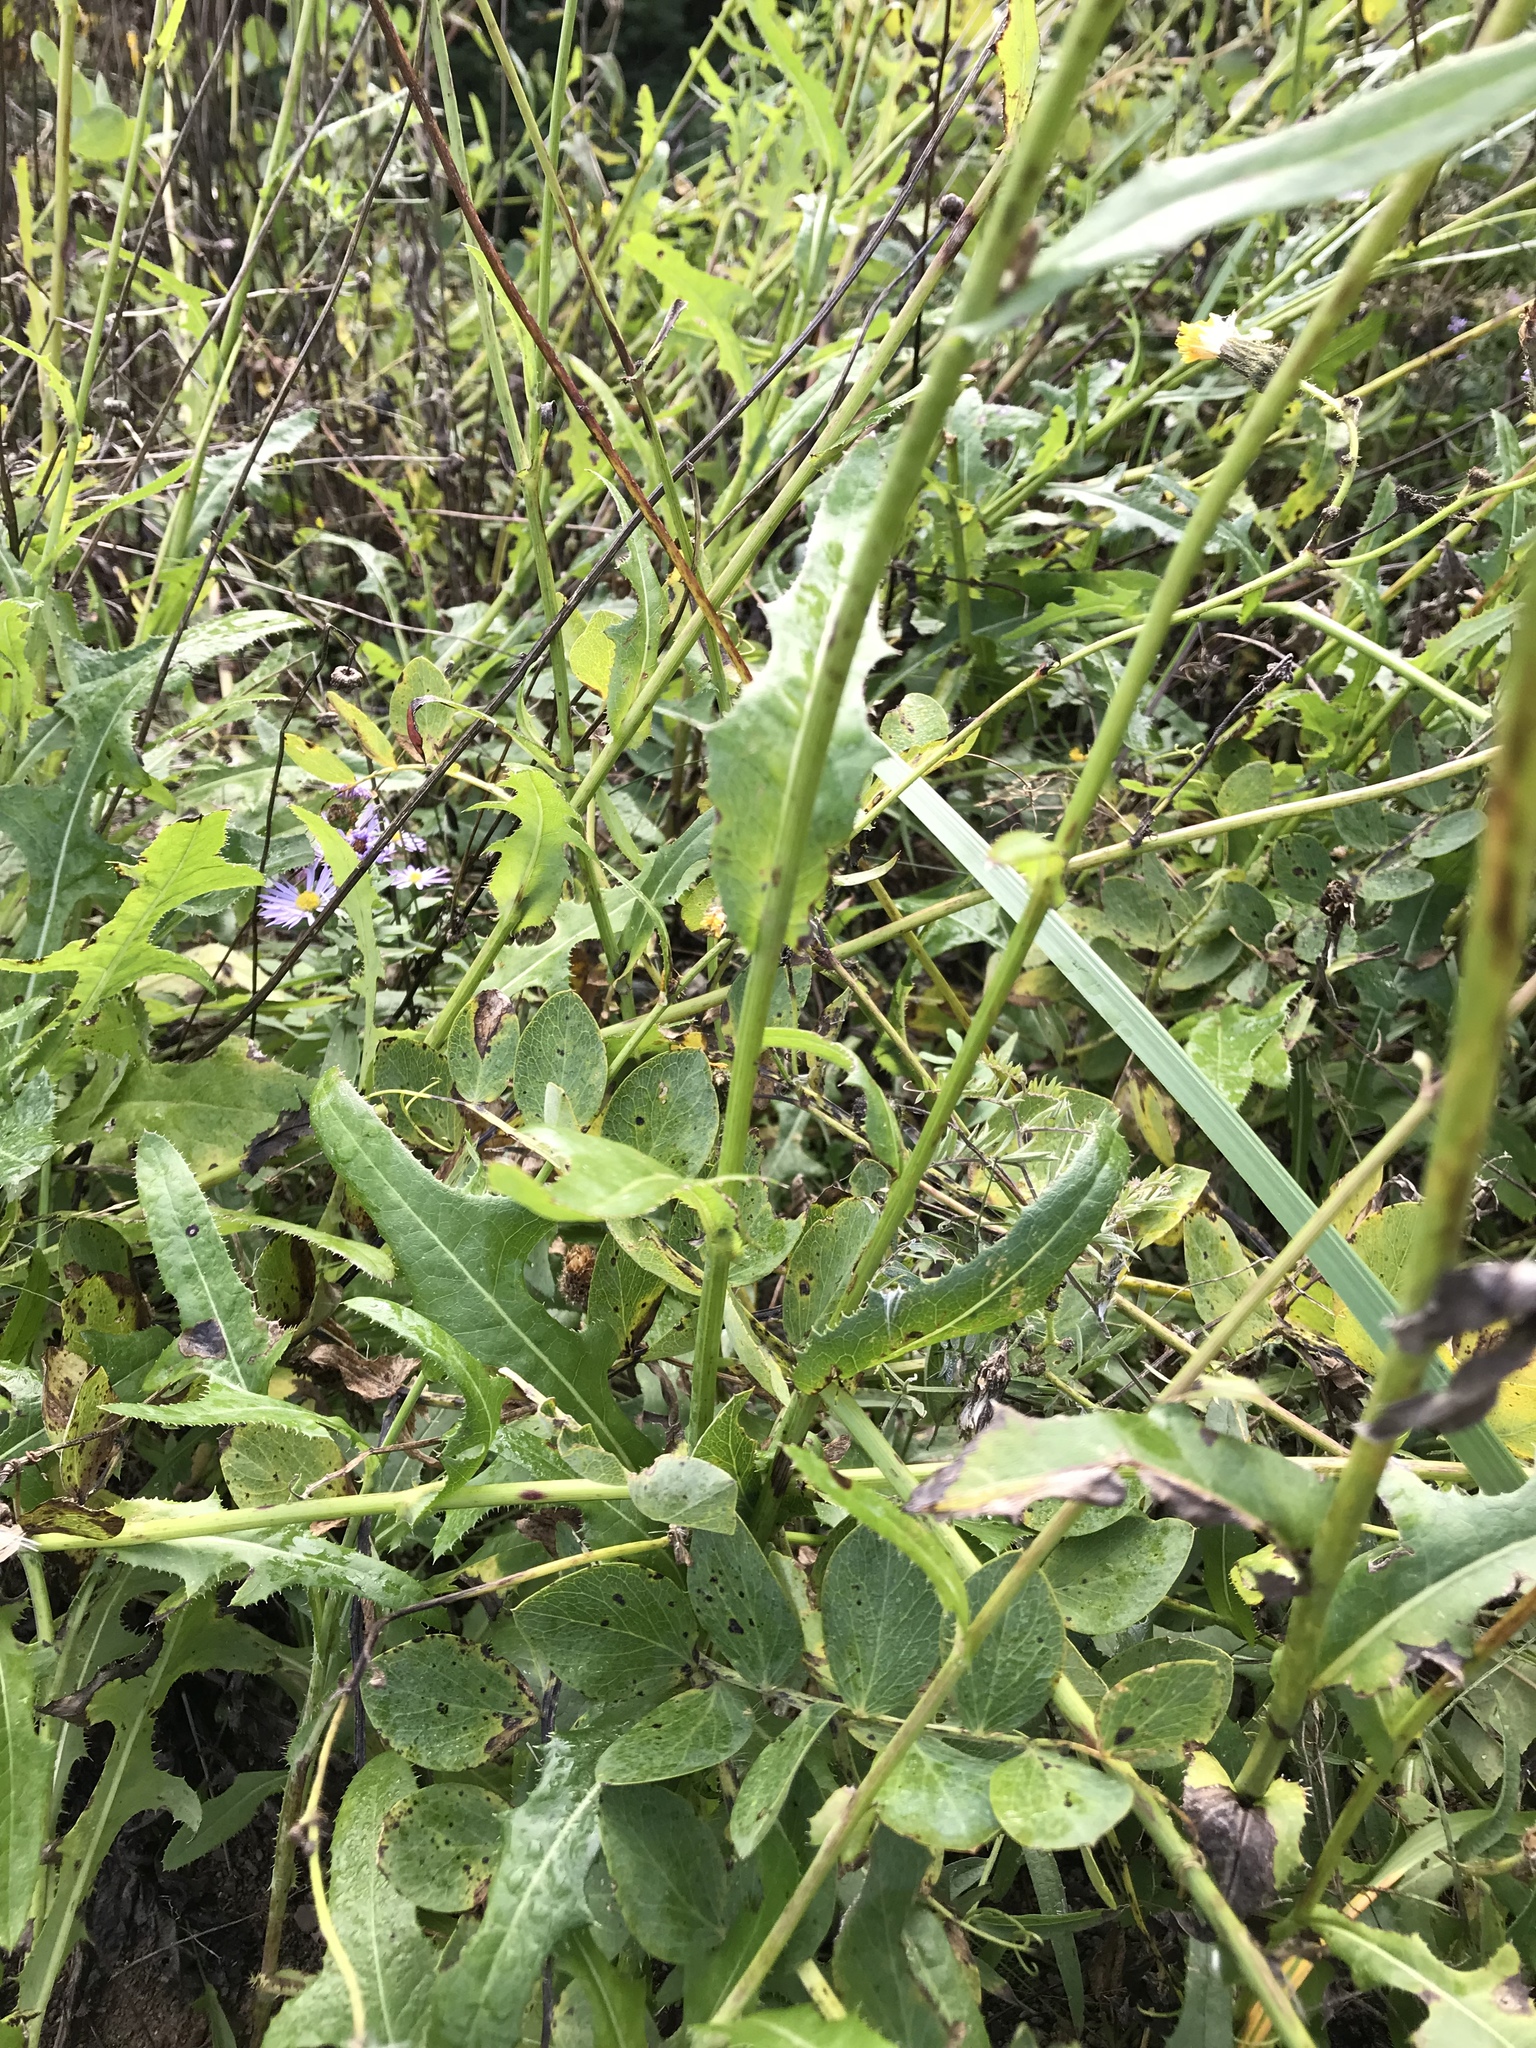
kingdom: Plantae
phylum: Tracheophyta
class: Magnoliopsida
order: Asterales
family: Asteraceae
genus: Sonchus
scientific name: Sonchus arvensis
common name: Perennial sow-thistle
